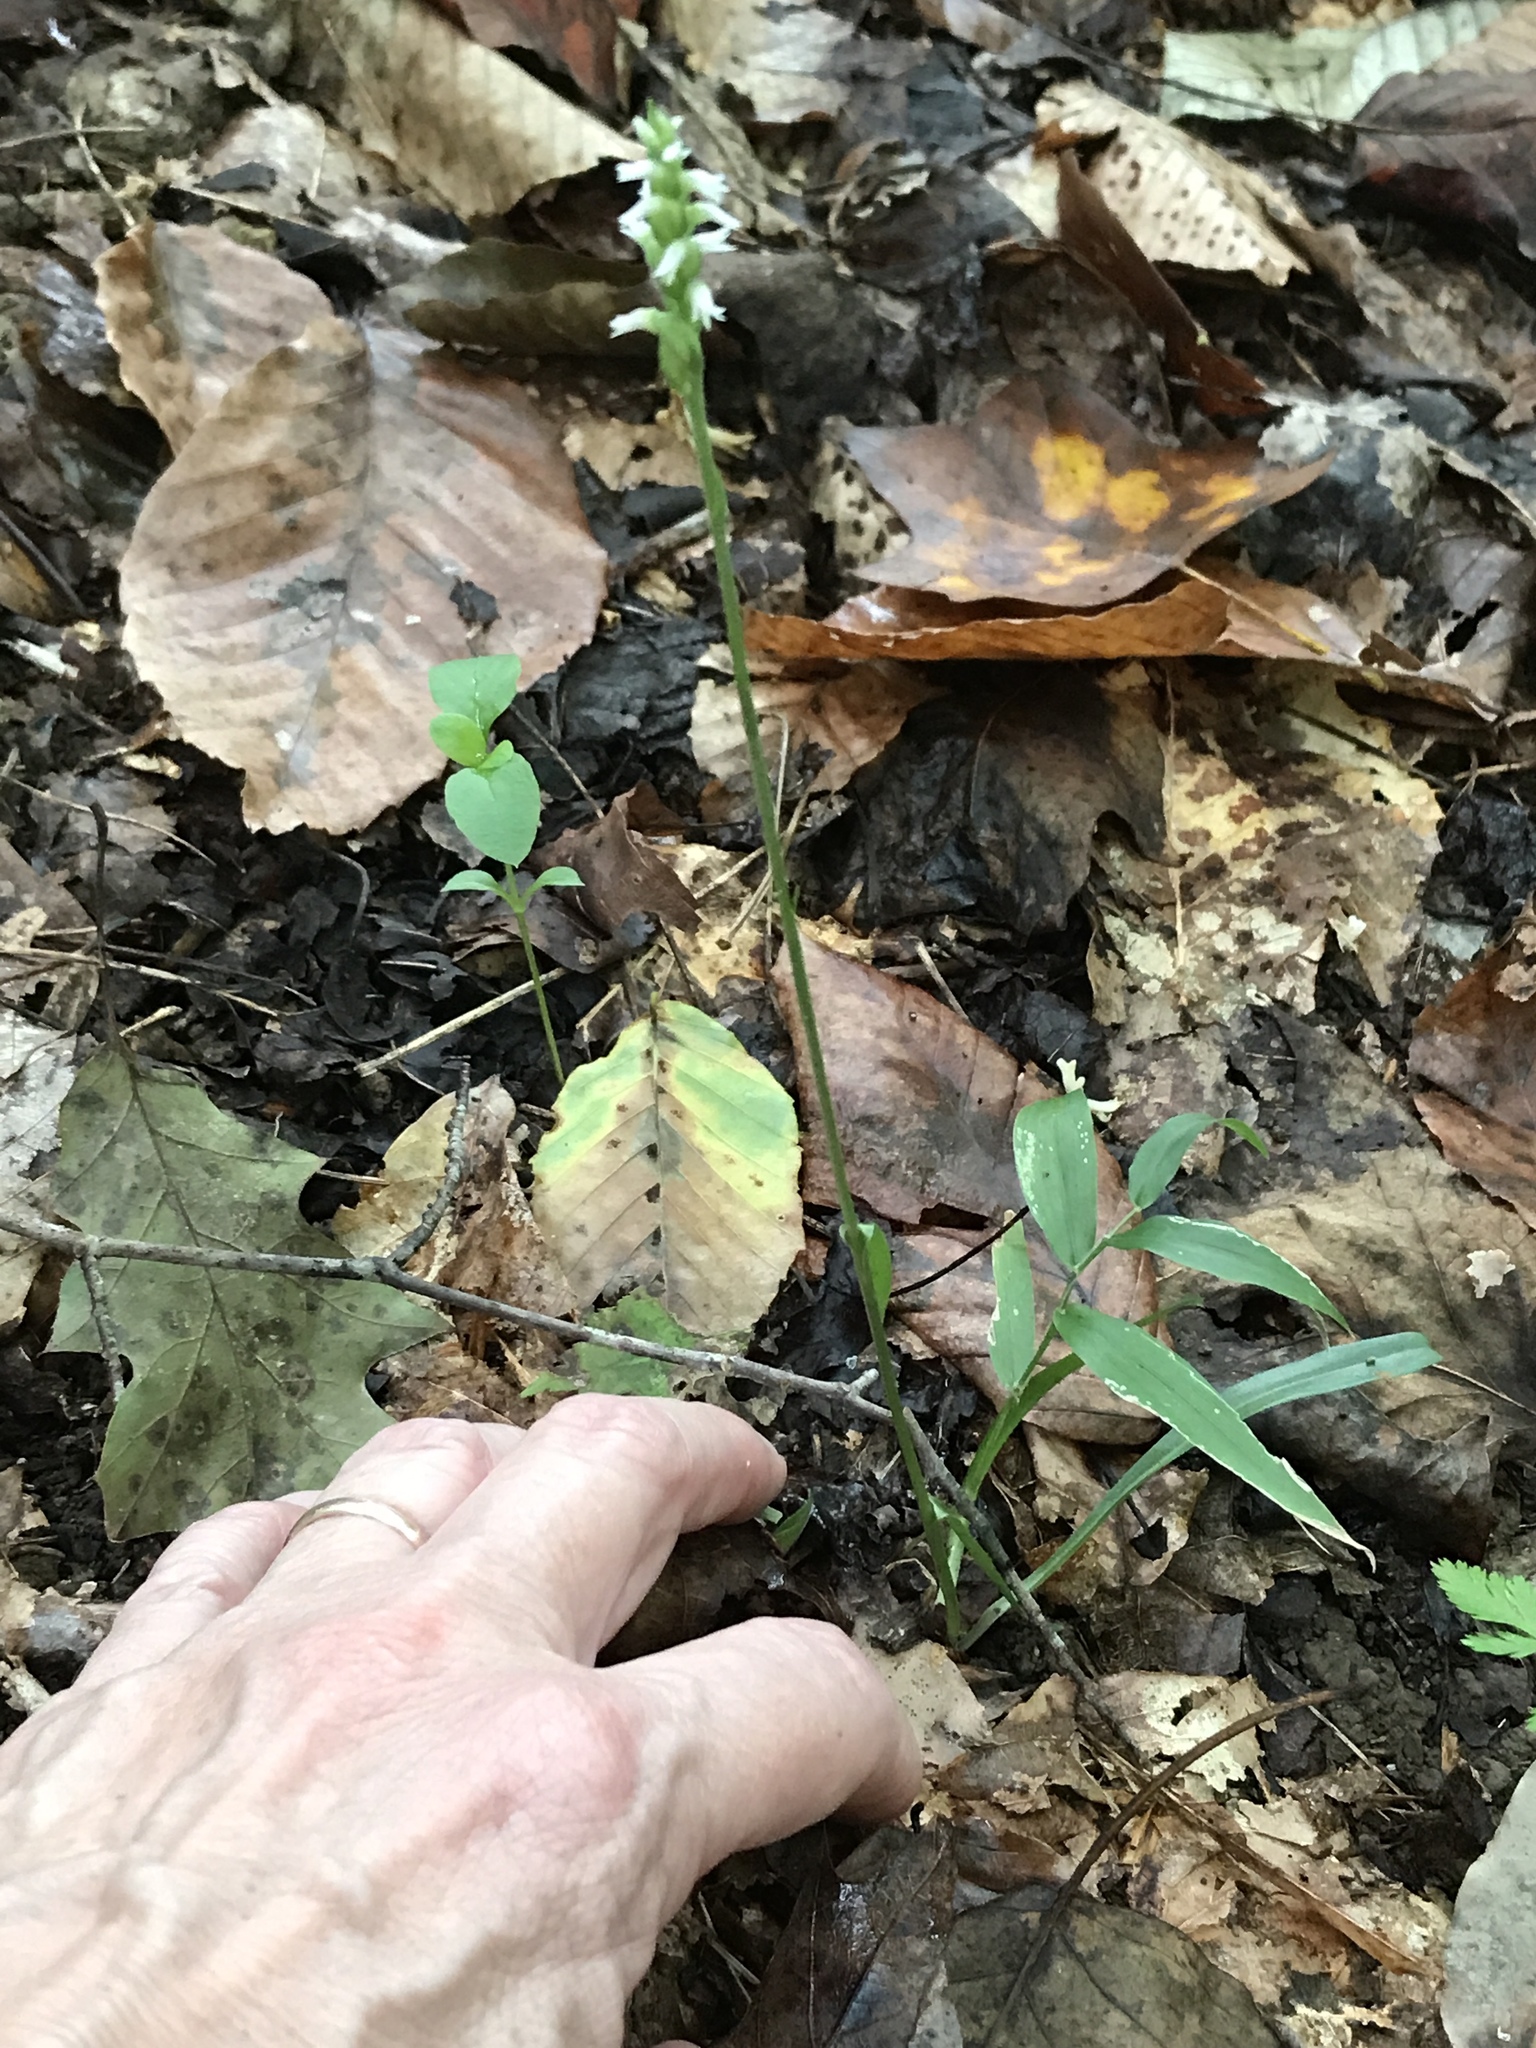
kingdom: Plantae
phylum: Tracheophyta
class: Liliopsida
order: Asparagales
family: Orchidaceae
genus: Spiranthes
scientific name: Spiranthes ovalis
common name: October ladies'-tresses
